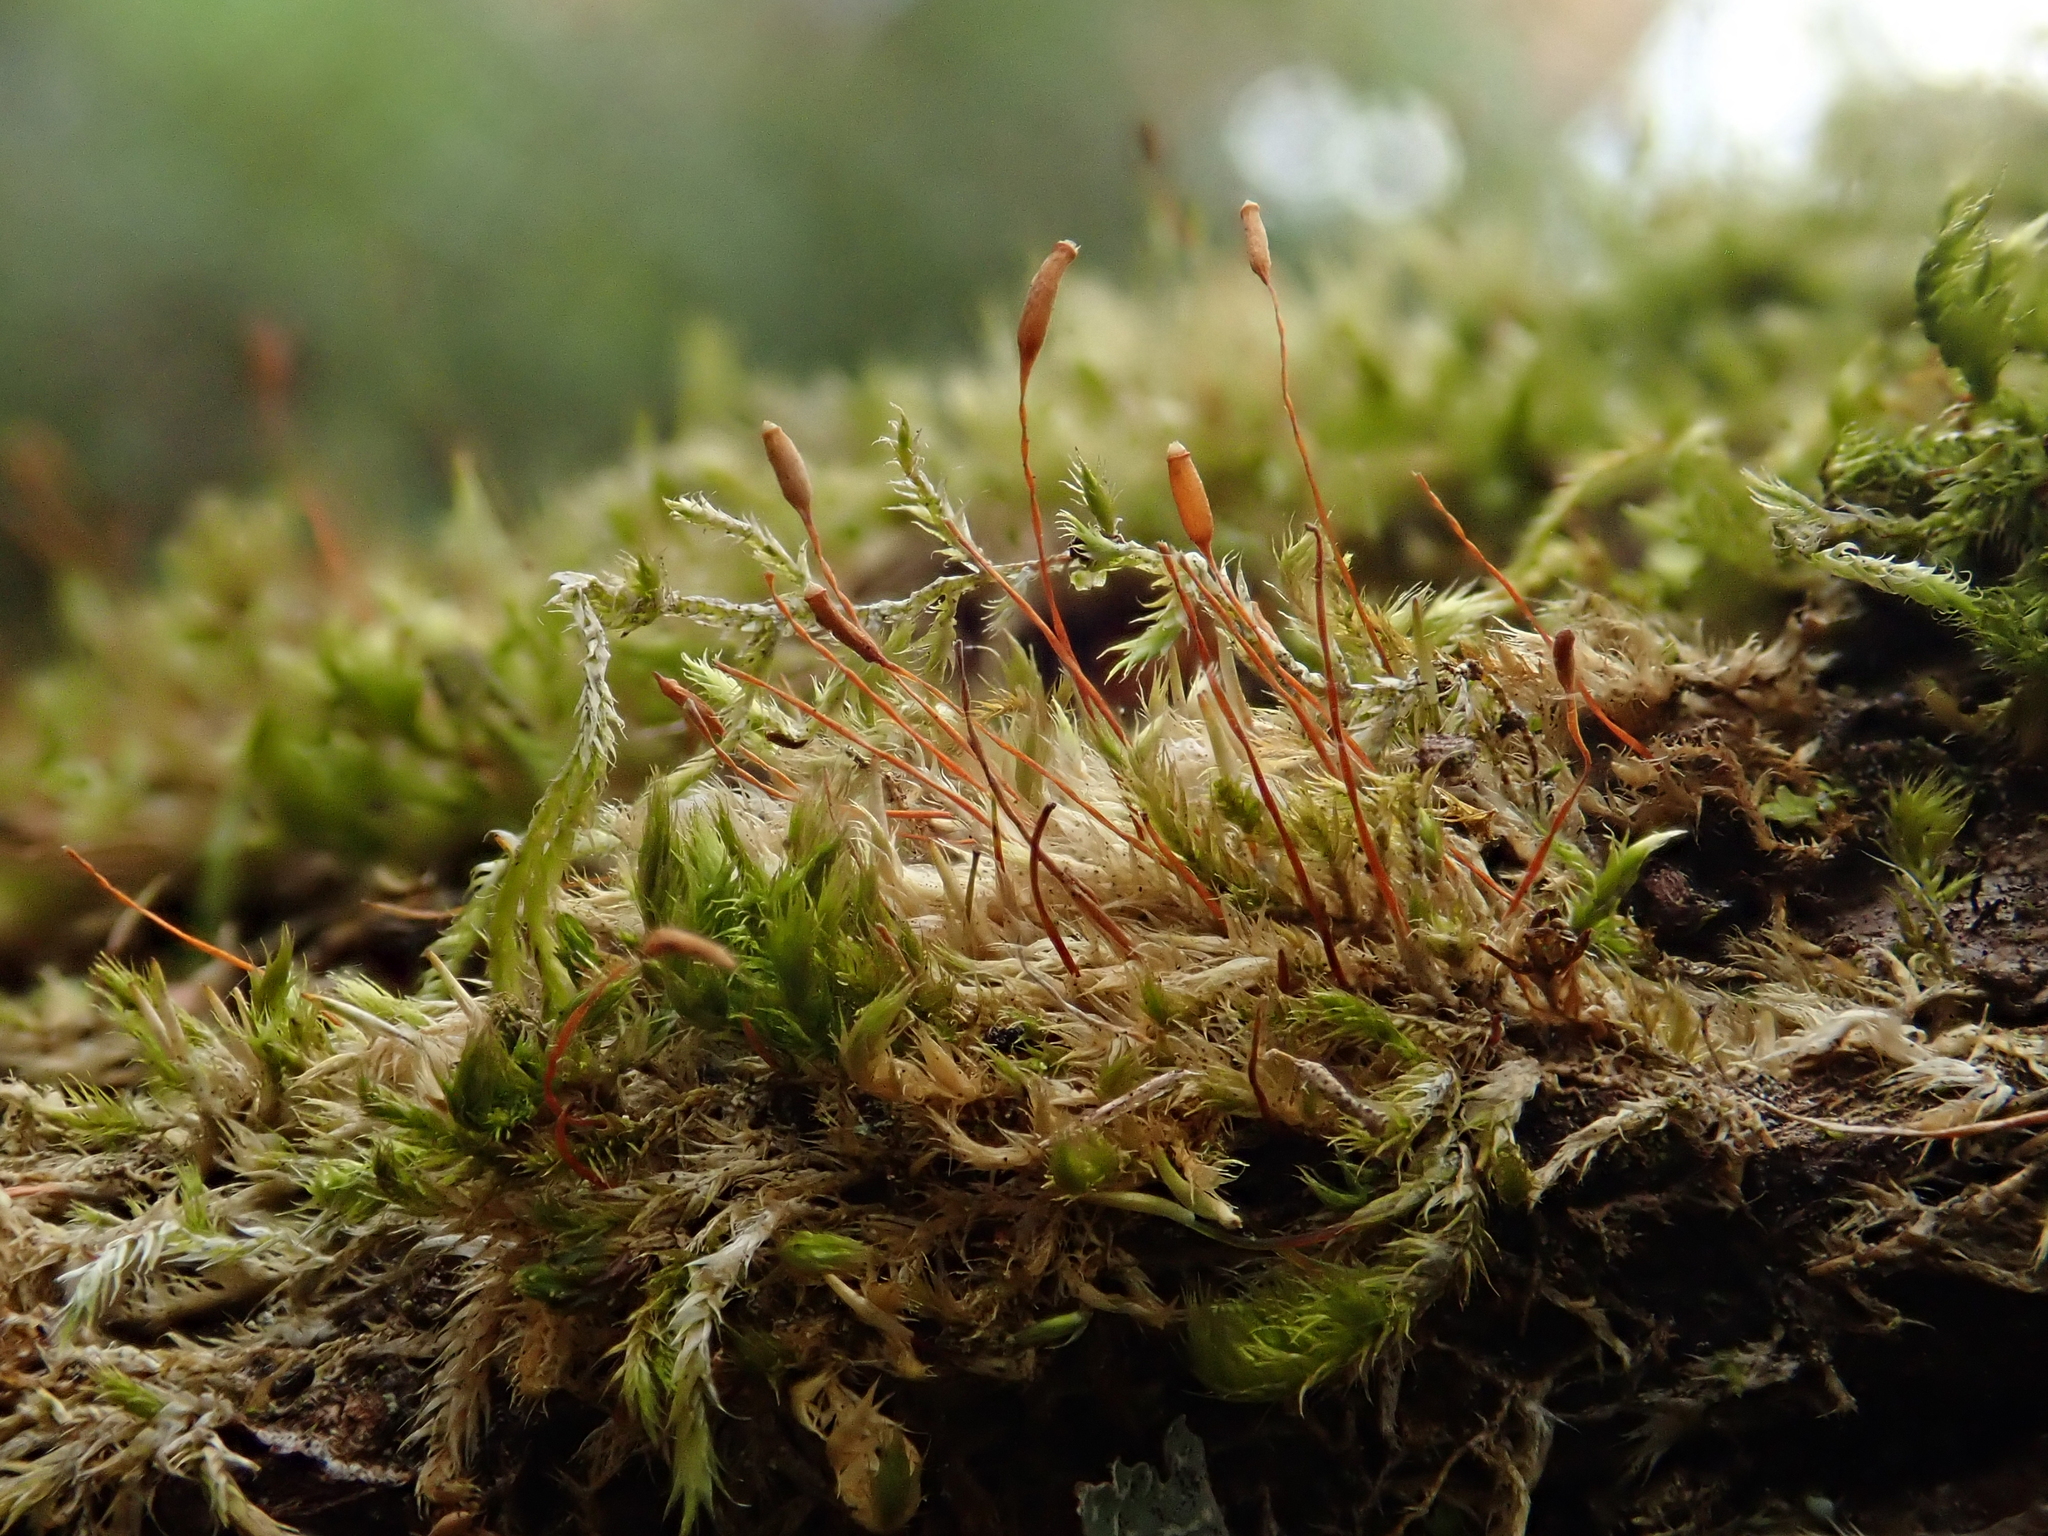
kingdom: Plantae
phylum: Bryophyta
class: Bryopsida
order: Hypnales
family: Pylaisiaceae
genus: Pylaisia
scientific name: Pylaisia polyantha
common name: Many-flowered leskea
